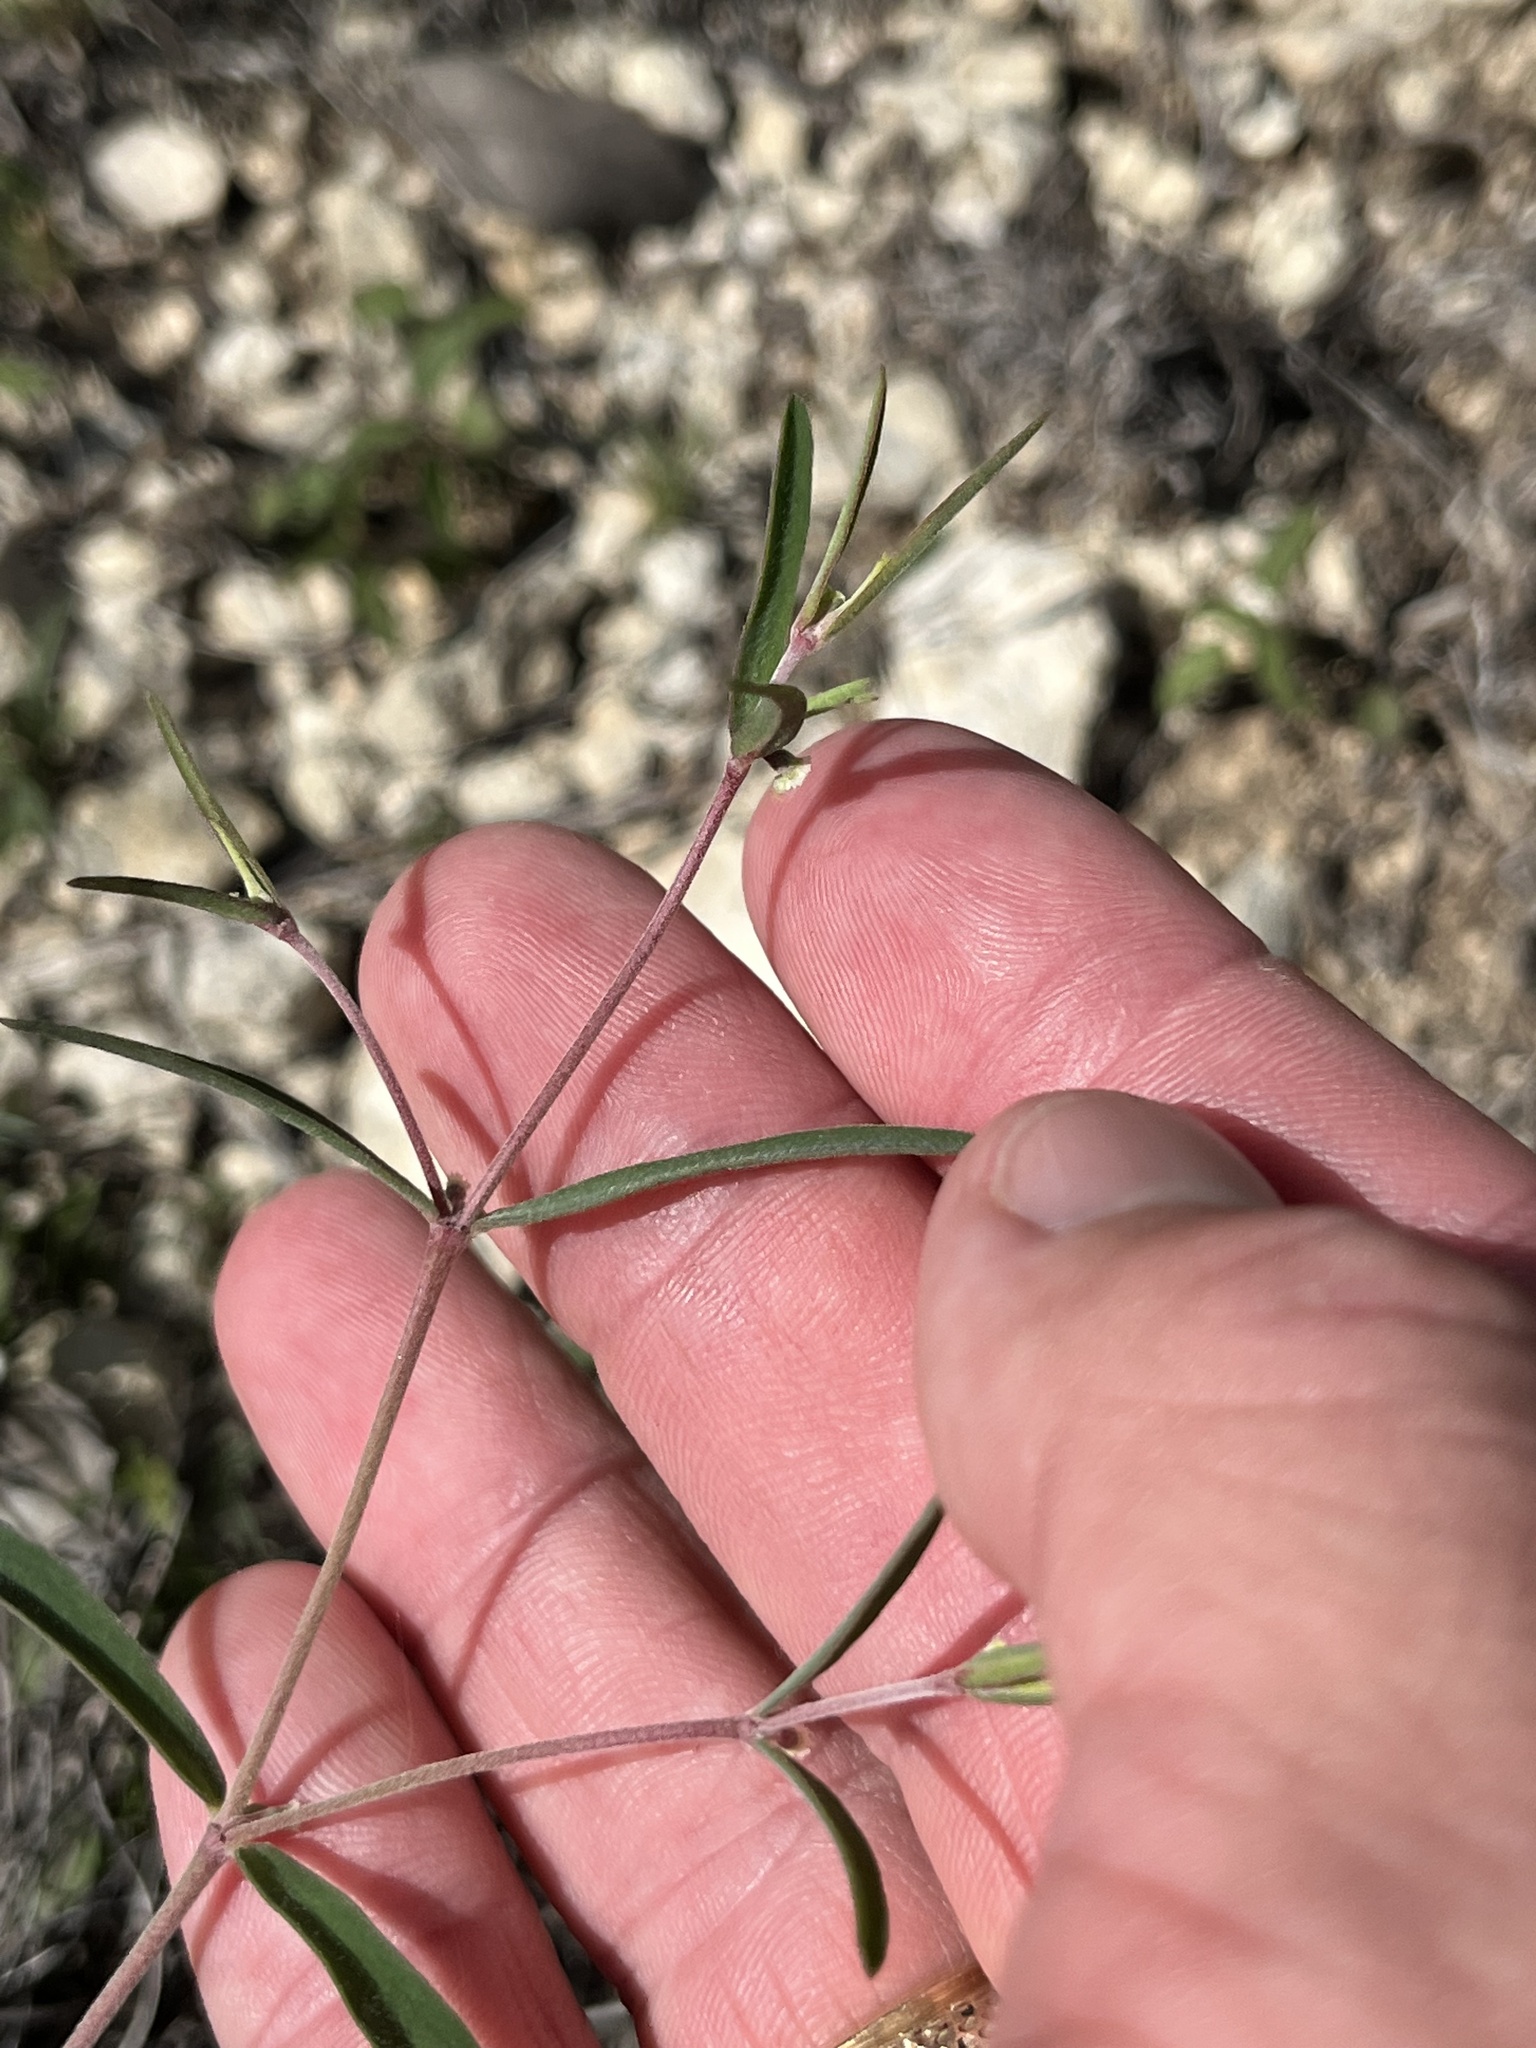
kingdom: Plantae
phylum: Tracheophyta
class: Magnoliopsida
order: Malpighiales
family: Euphorbiaceae
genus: Euphorbia
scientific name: Euphorbia angusta
